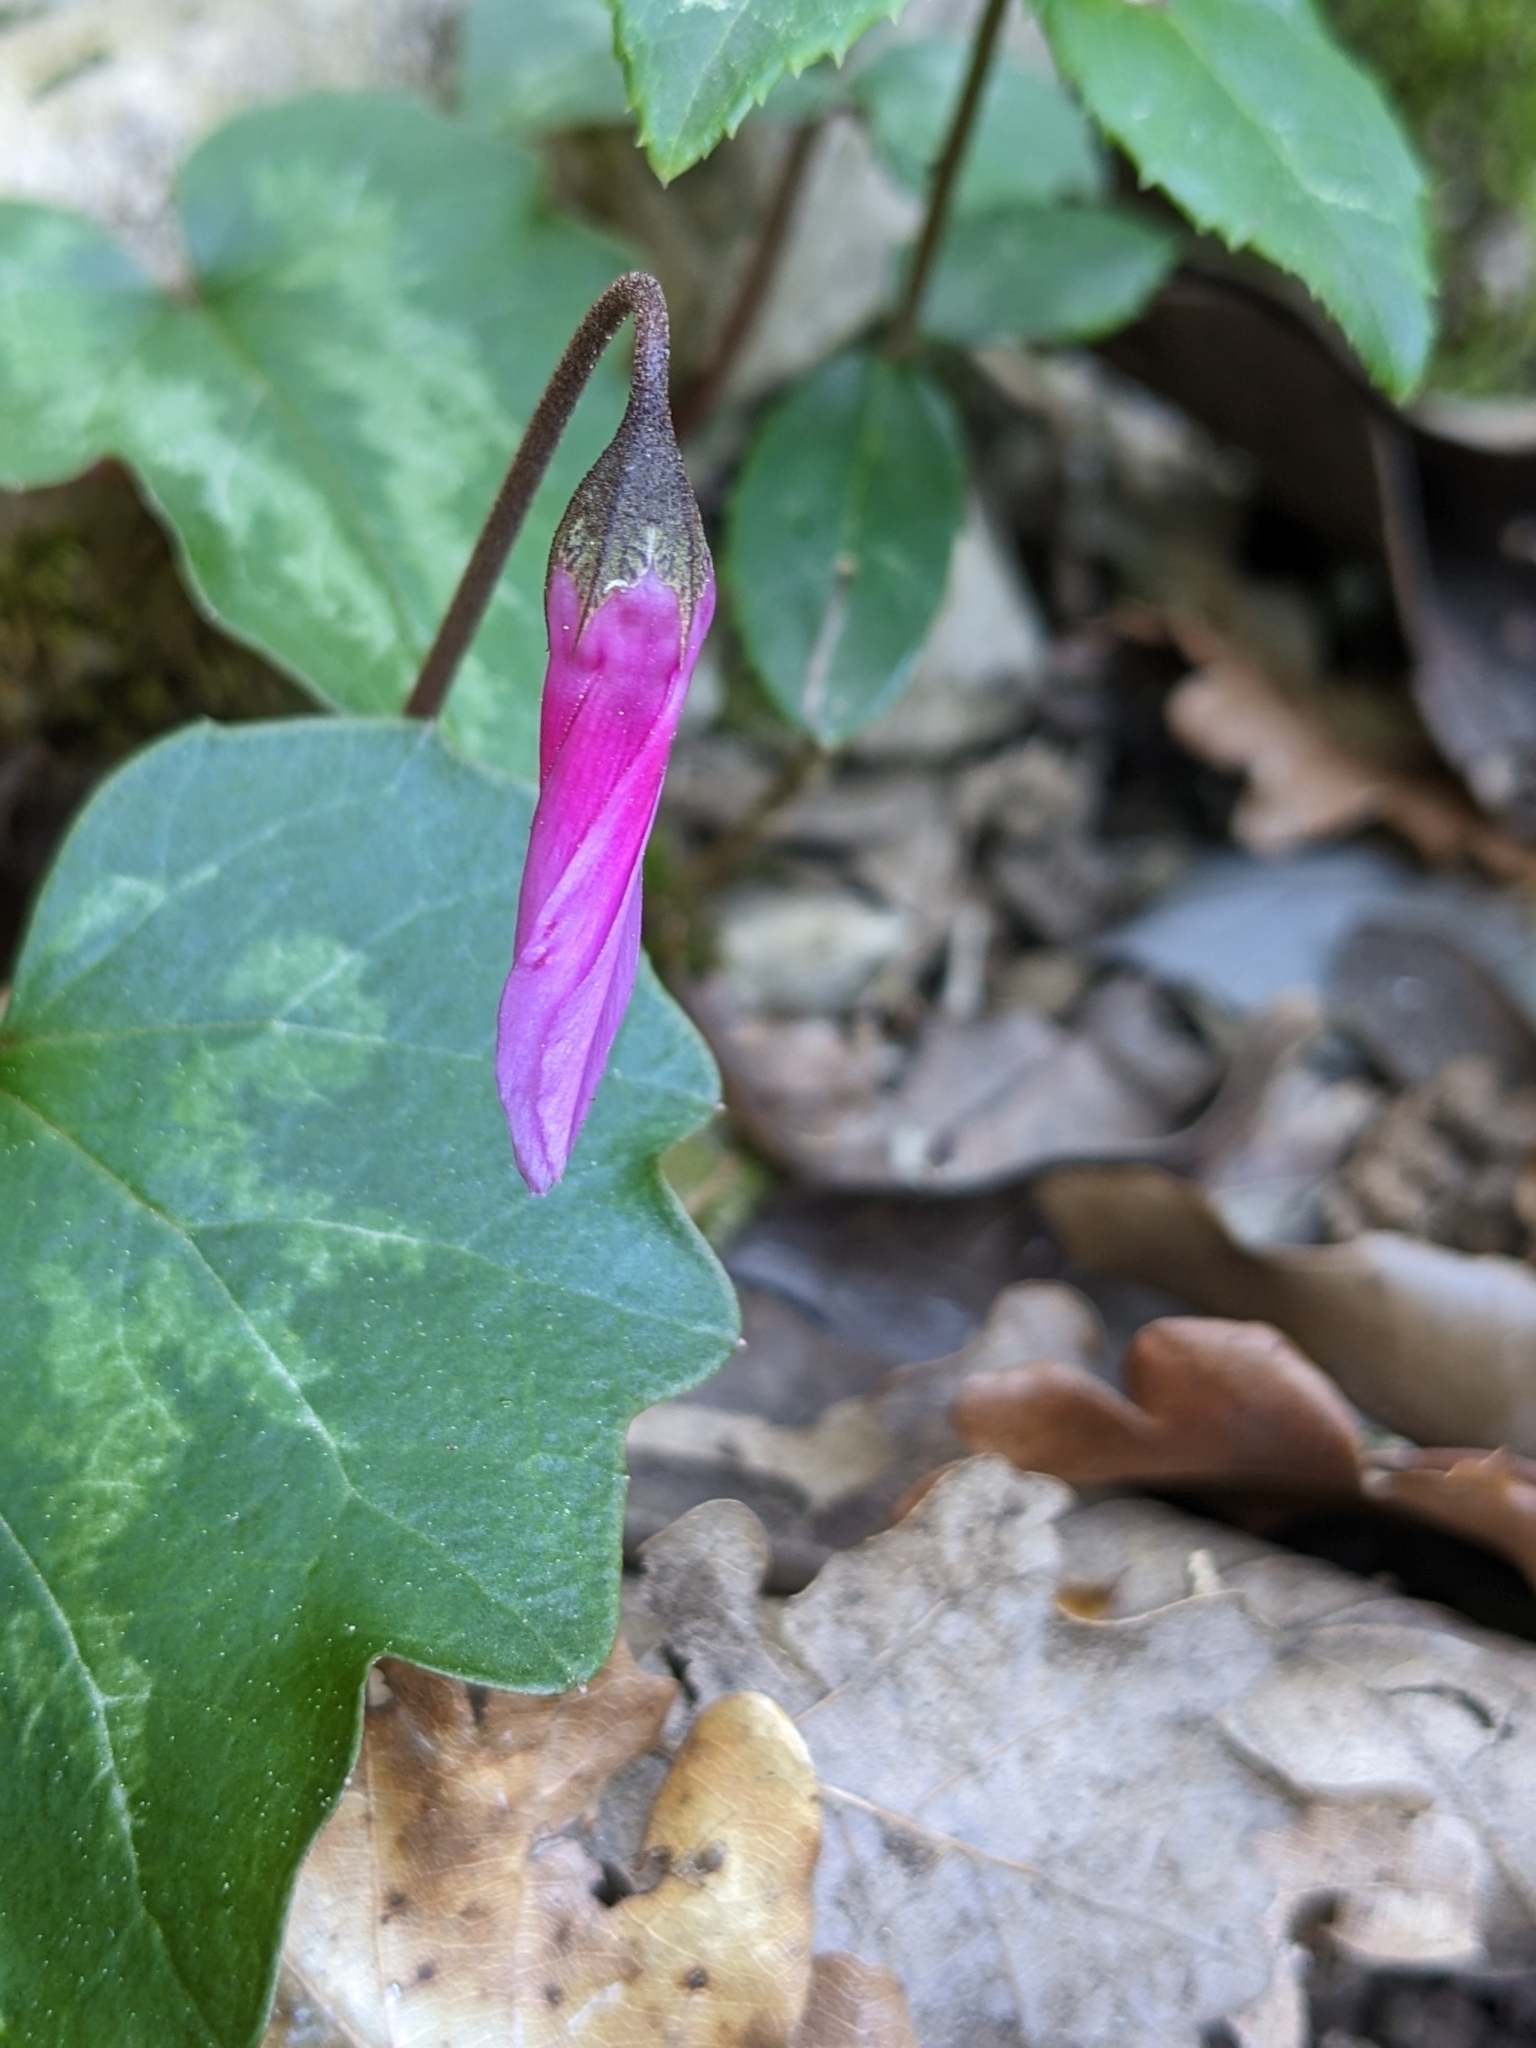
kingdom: Plantae
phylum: Tracheophyta
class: Magnoliopsida
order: Ericales
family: Primulaceae
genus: Cyclamen
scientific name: Cyclamen repandum
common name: Spring sowbread
